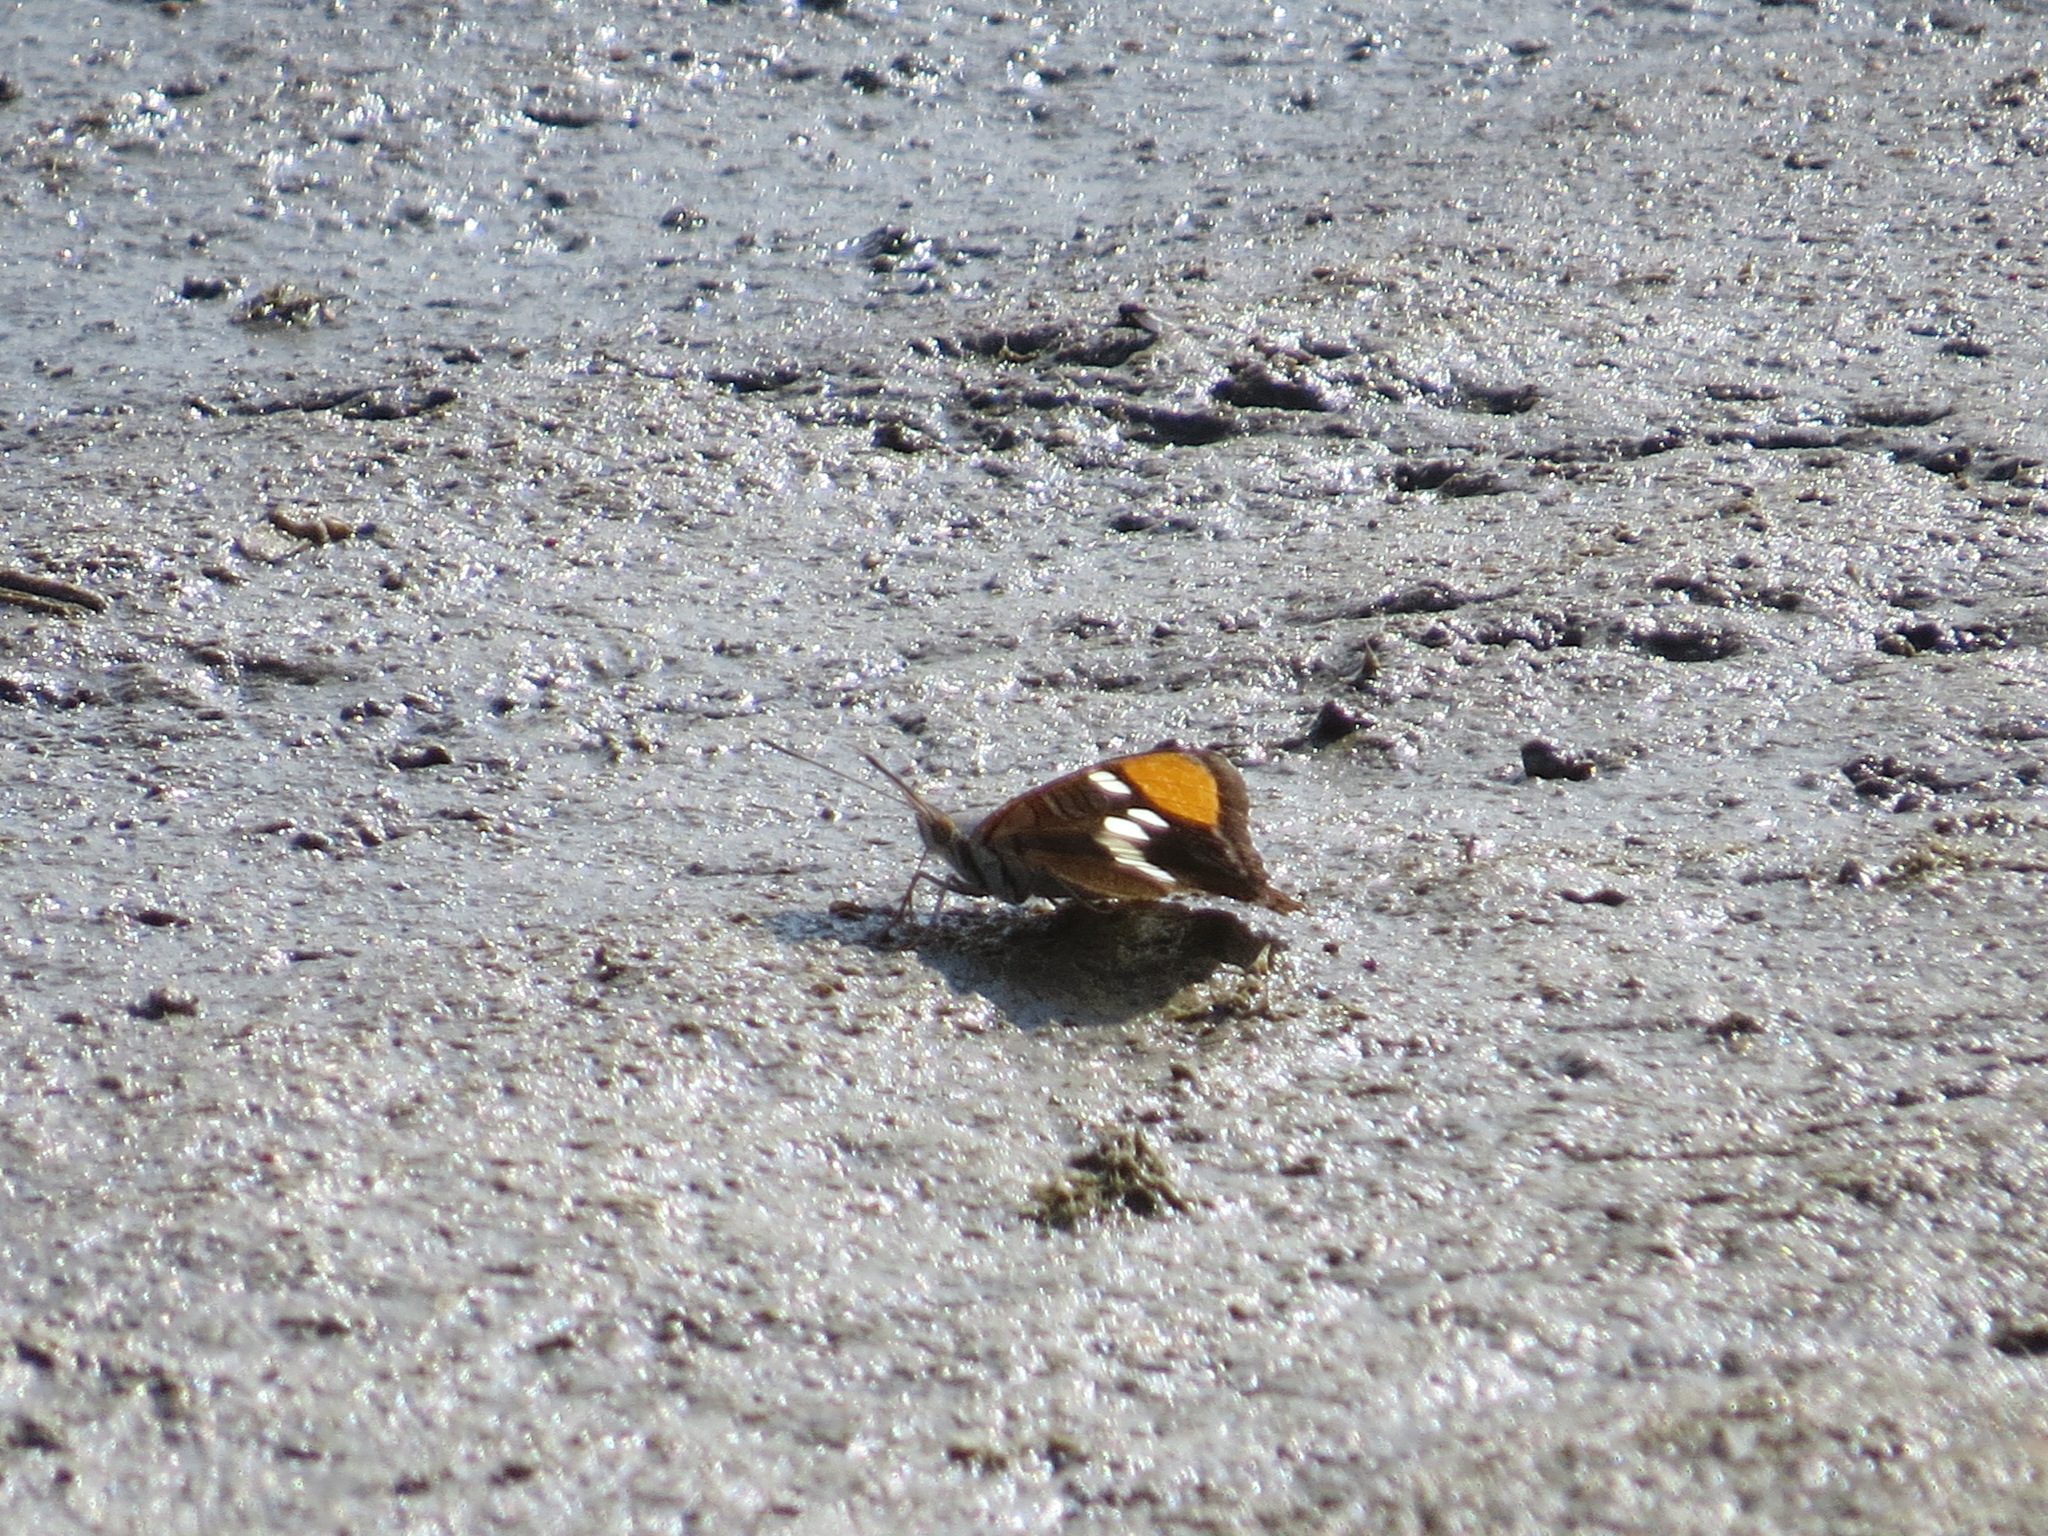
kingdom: Animalia
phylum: Arthropoda
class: Insecta
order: Lepidoptera
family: Nymphalidae
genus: Limenitis
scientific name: Limenitis bredowii
